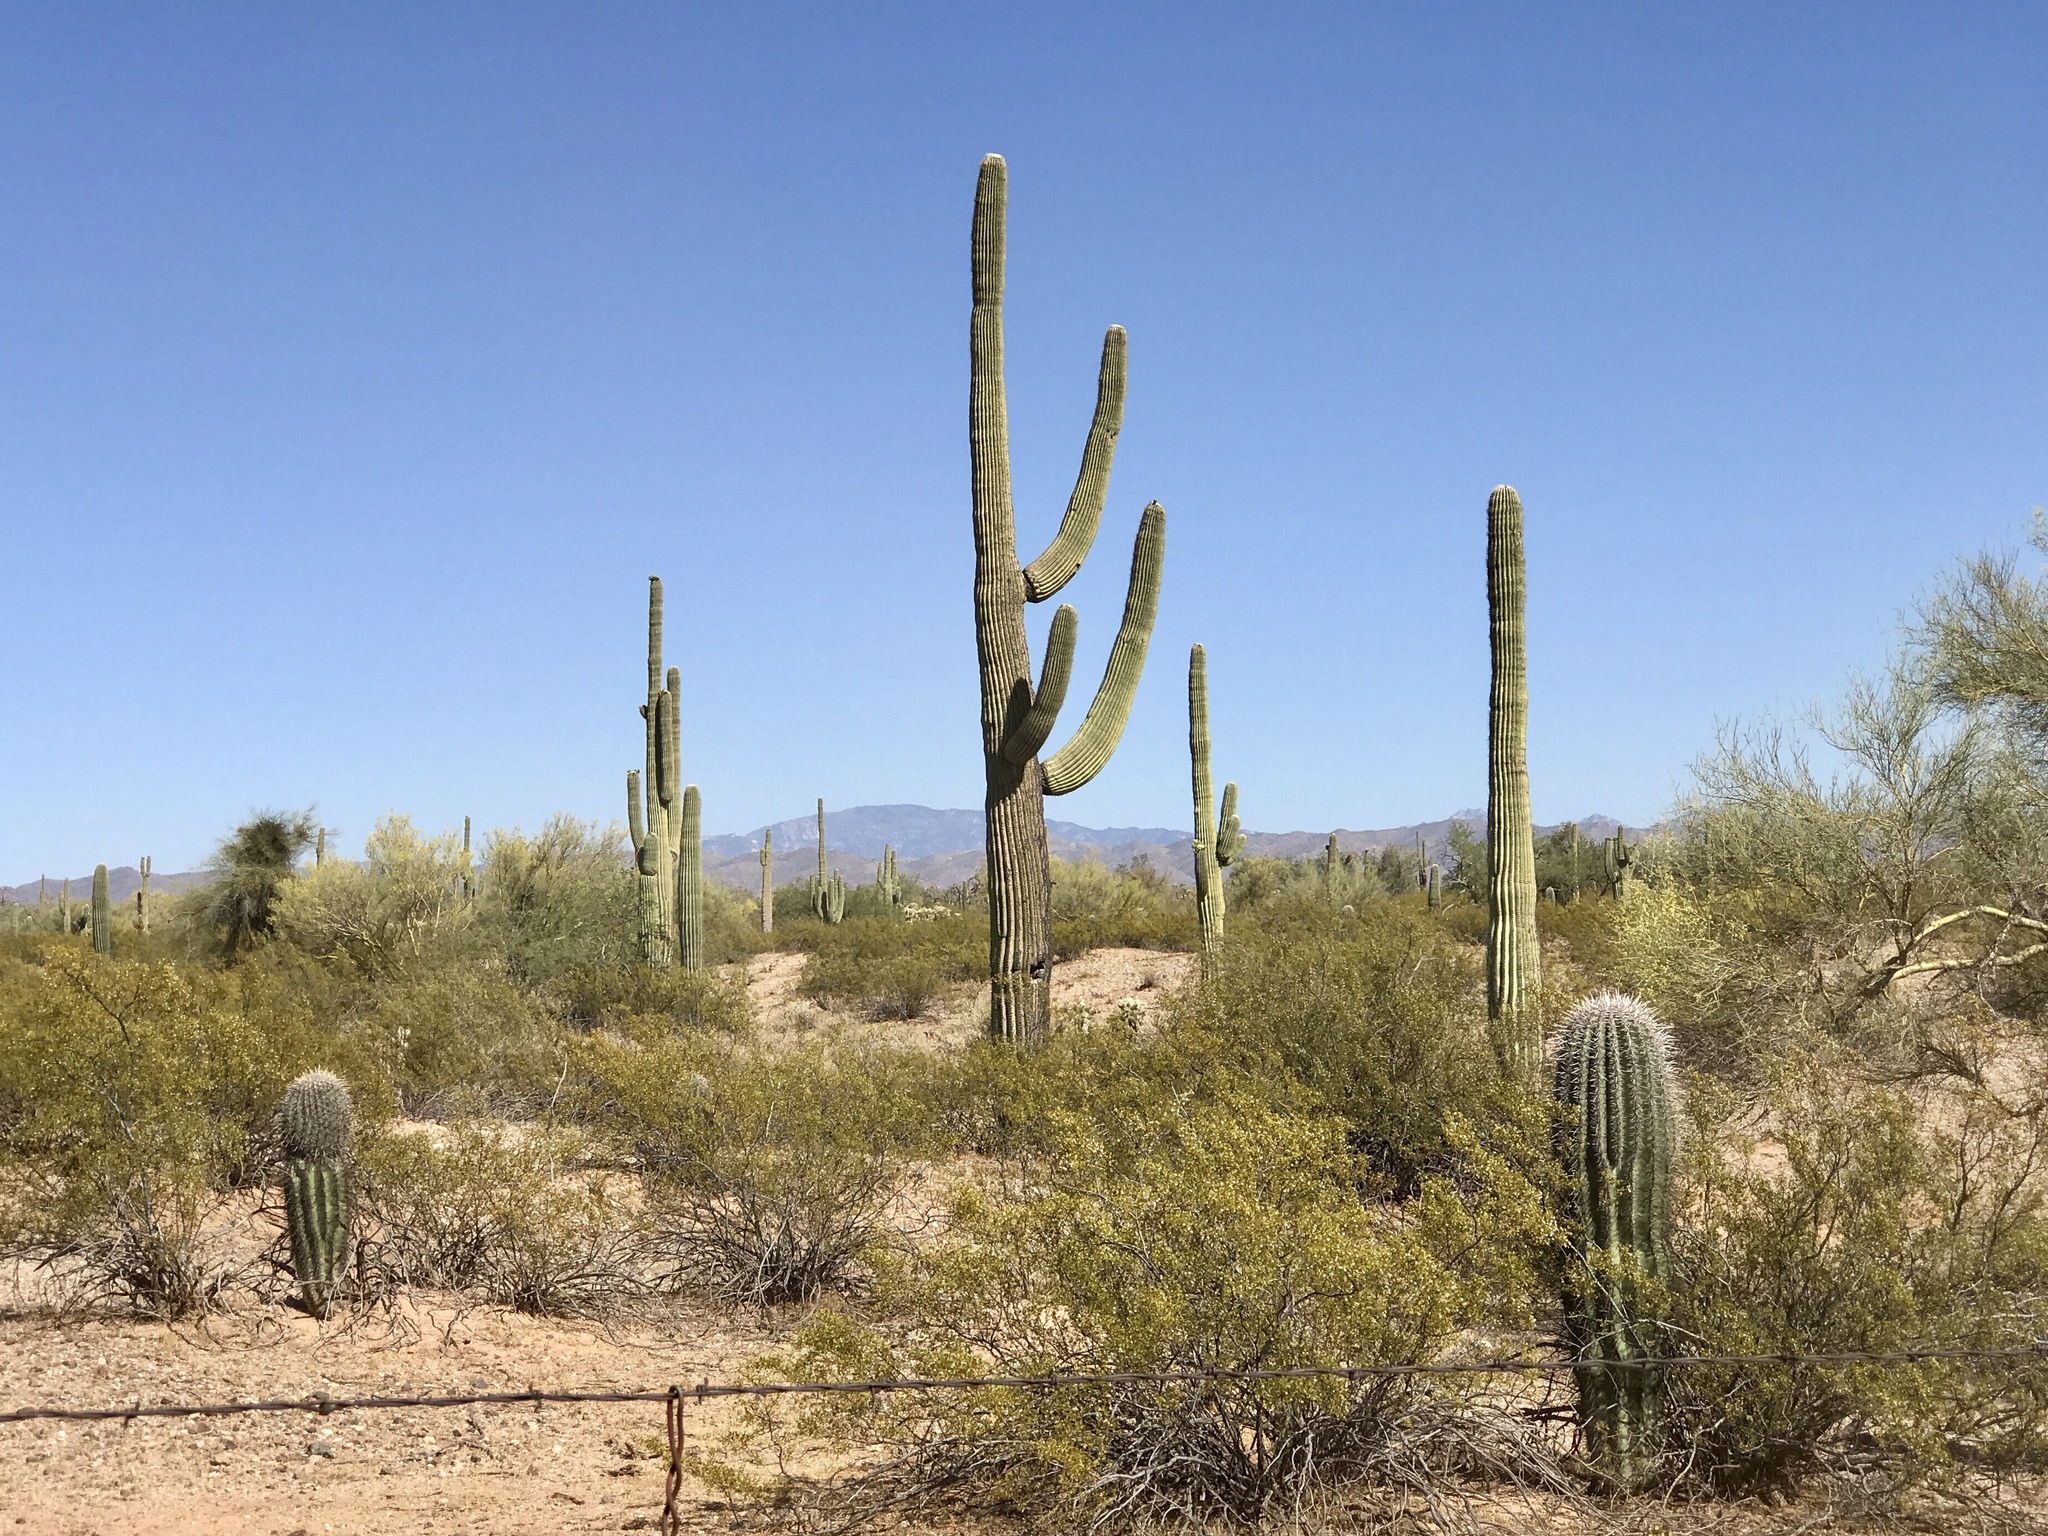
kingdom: Plantae
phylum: Tracheophyta
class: Magnoliopsida
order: Caryophyllales
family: Cactaceae
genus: Carnegiea
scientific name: Carnegiea gigantea
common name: Saguaro
